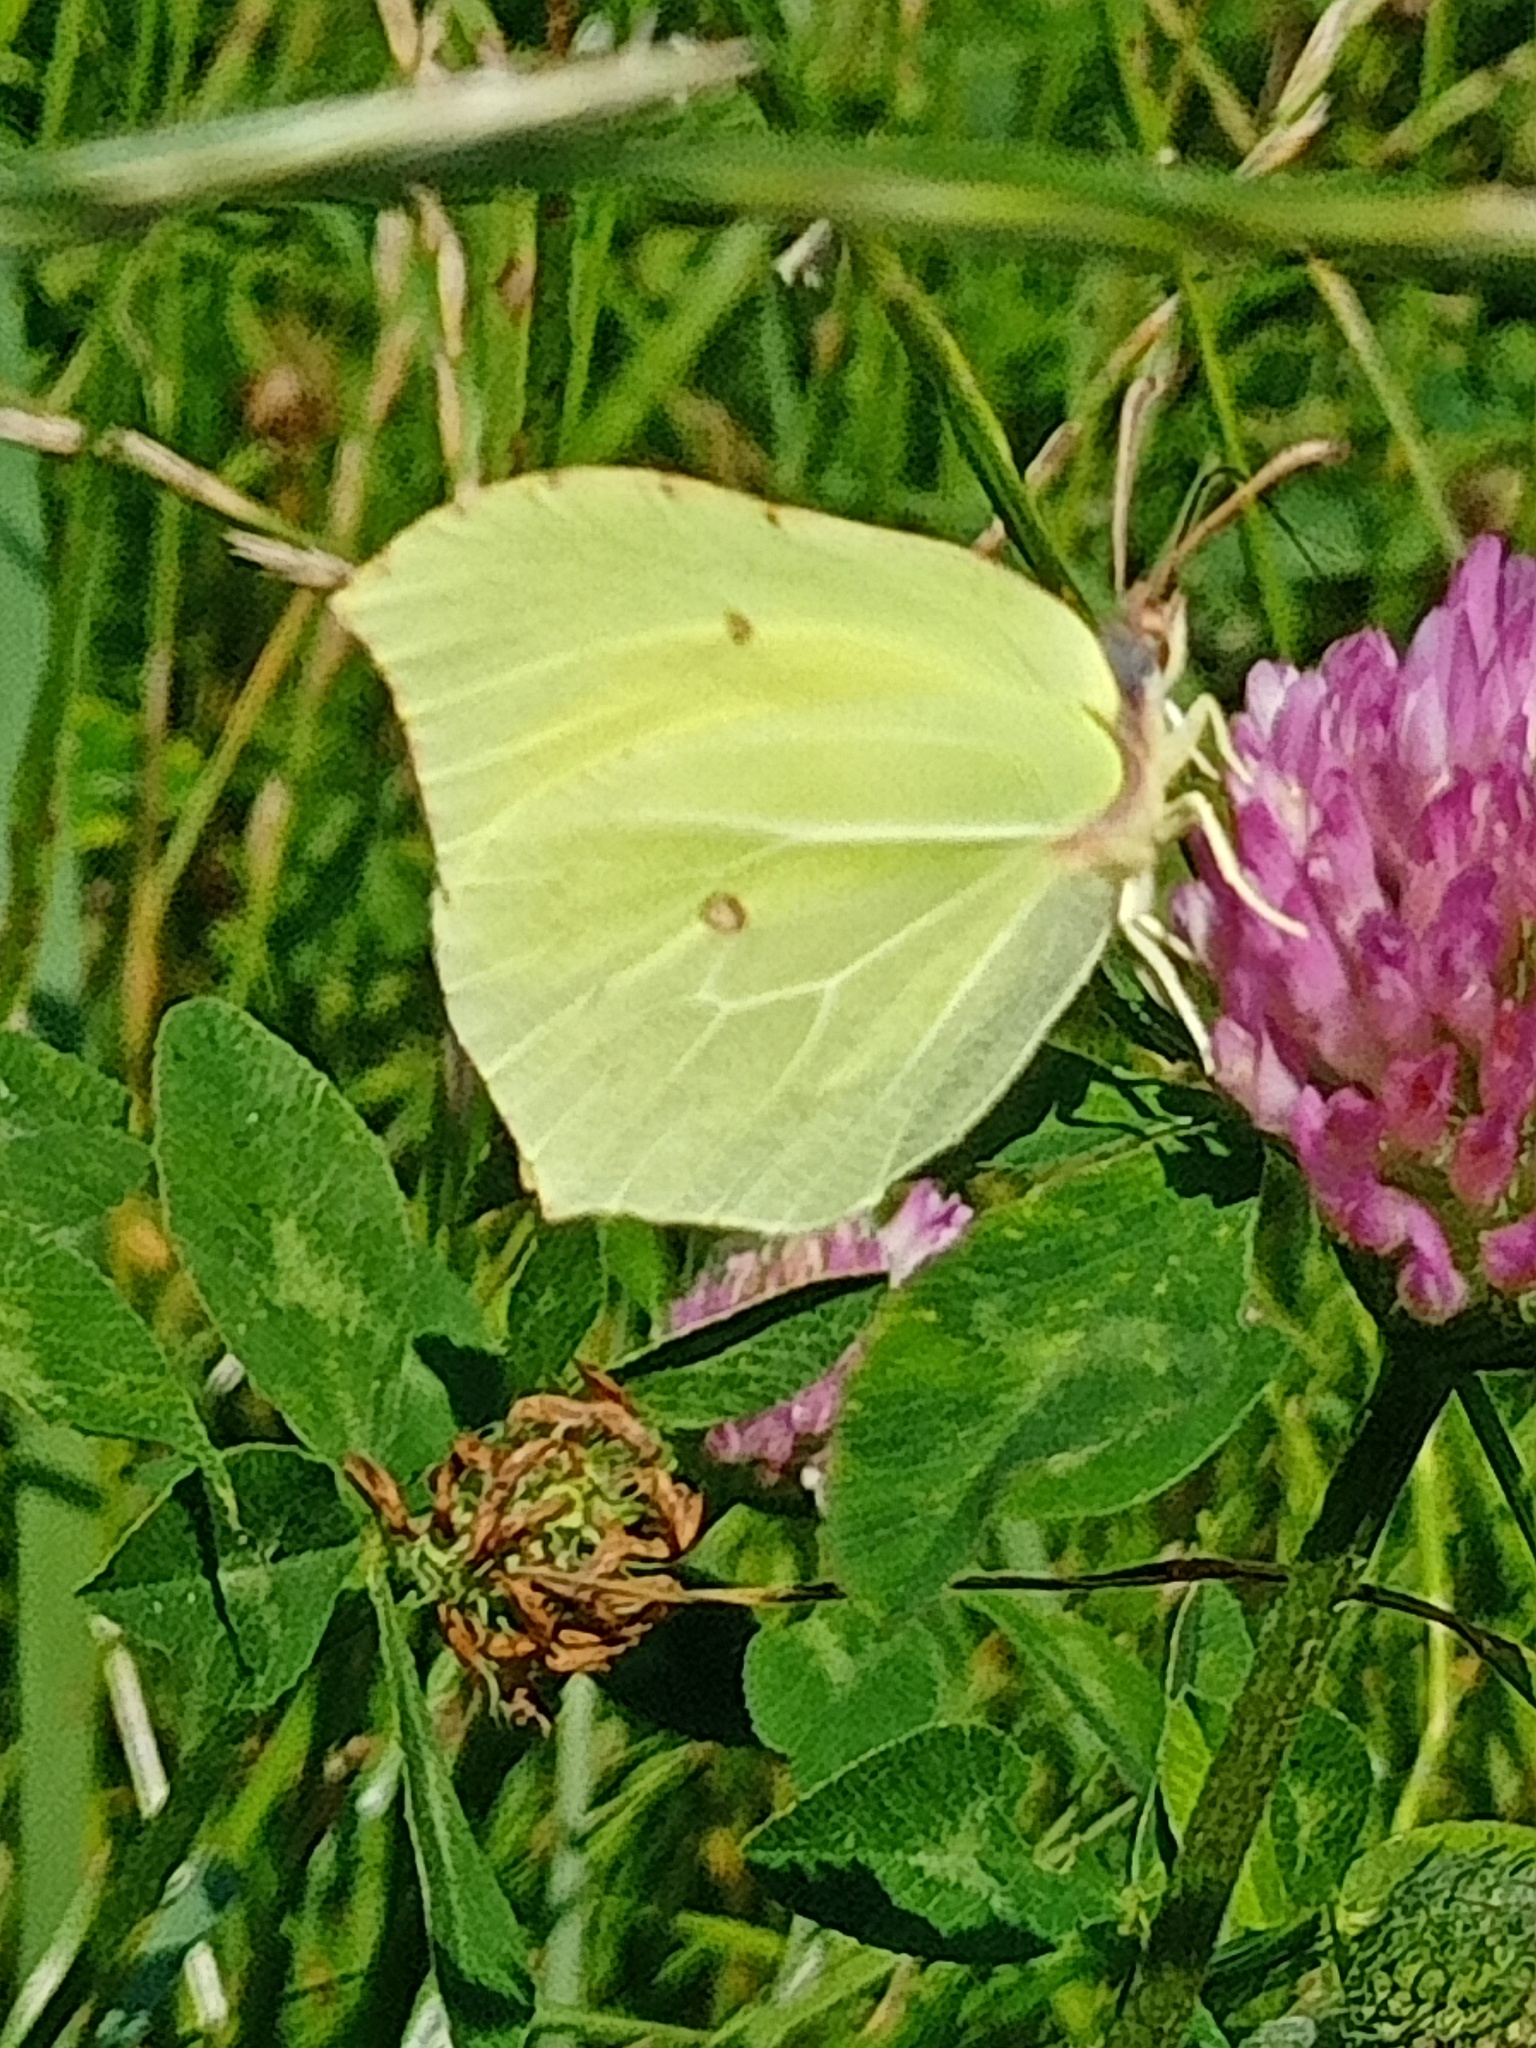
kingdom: Animalia
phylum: Arthropoda
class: Insecta
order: Lepidoptera
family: Pieridae
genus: Gonepteryx
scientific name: Gonepteryx rhamni
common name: Brimstone
